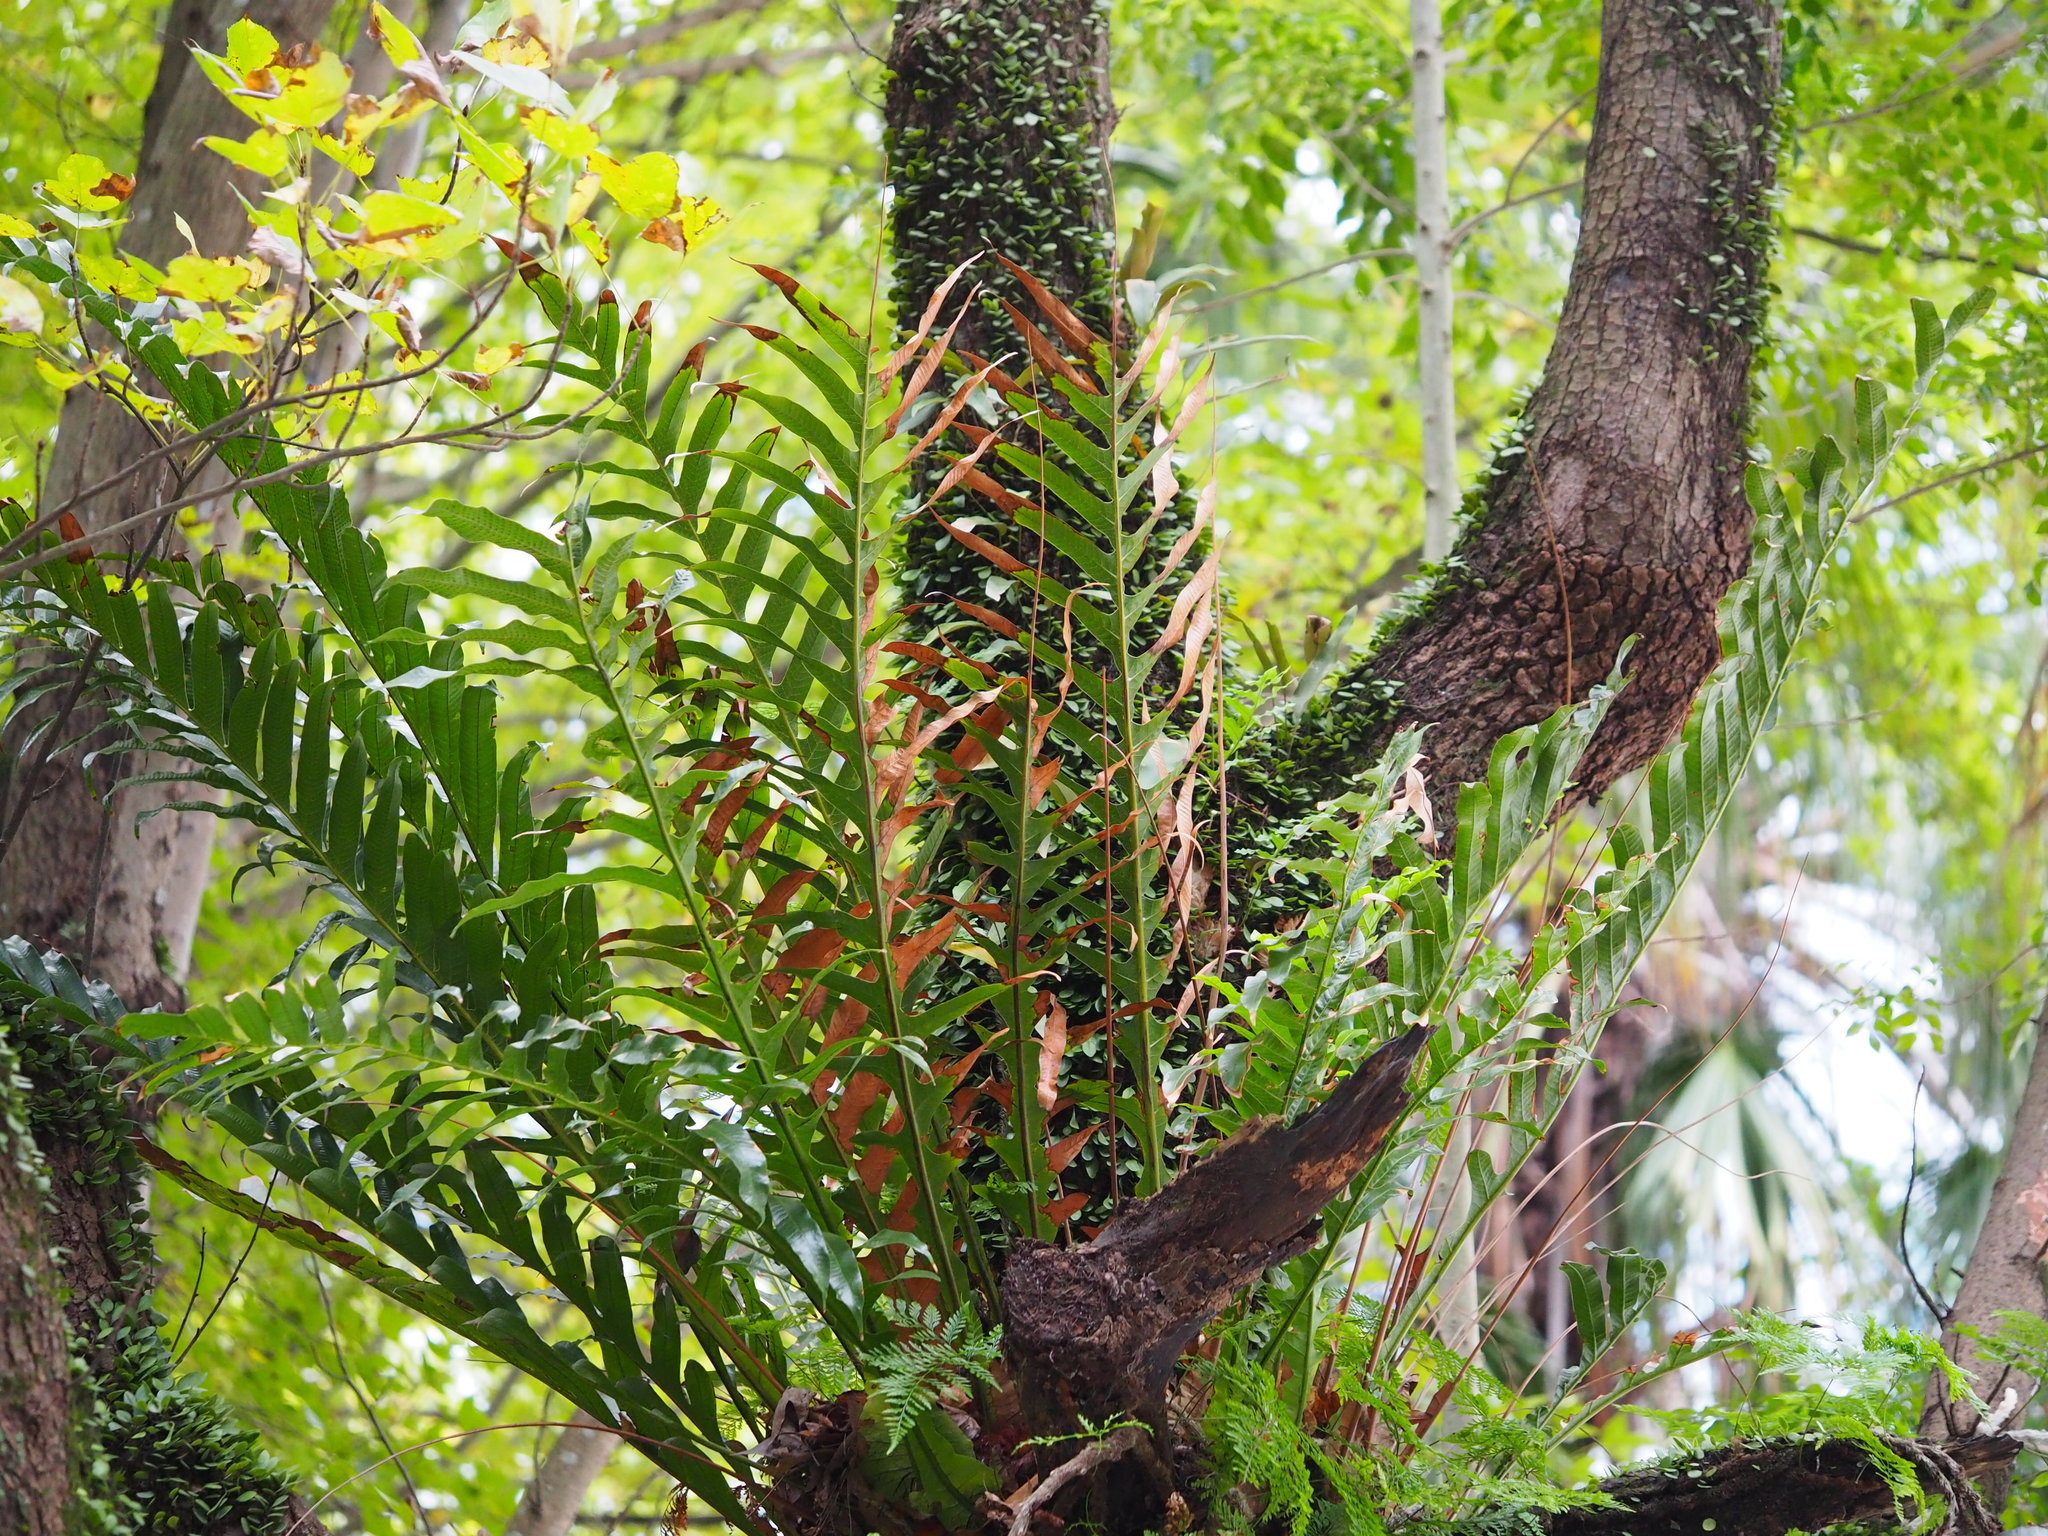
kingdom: Plantae
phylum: Tracheophyta
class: Polypodiopsida
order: Polypodiales
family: Polypodiaceae
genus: Drynaria
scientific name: Drynaria coronans
